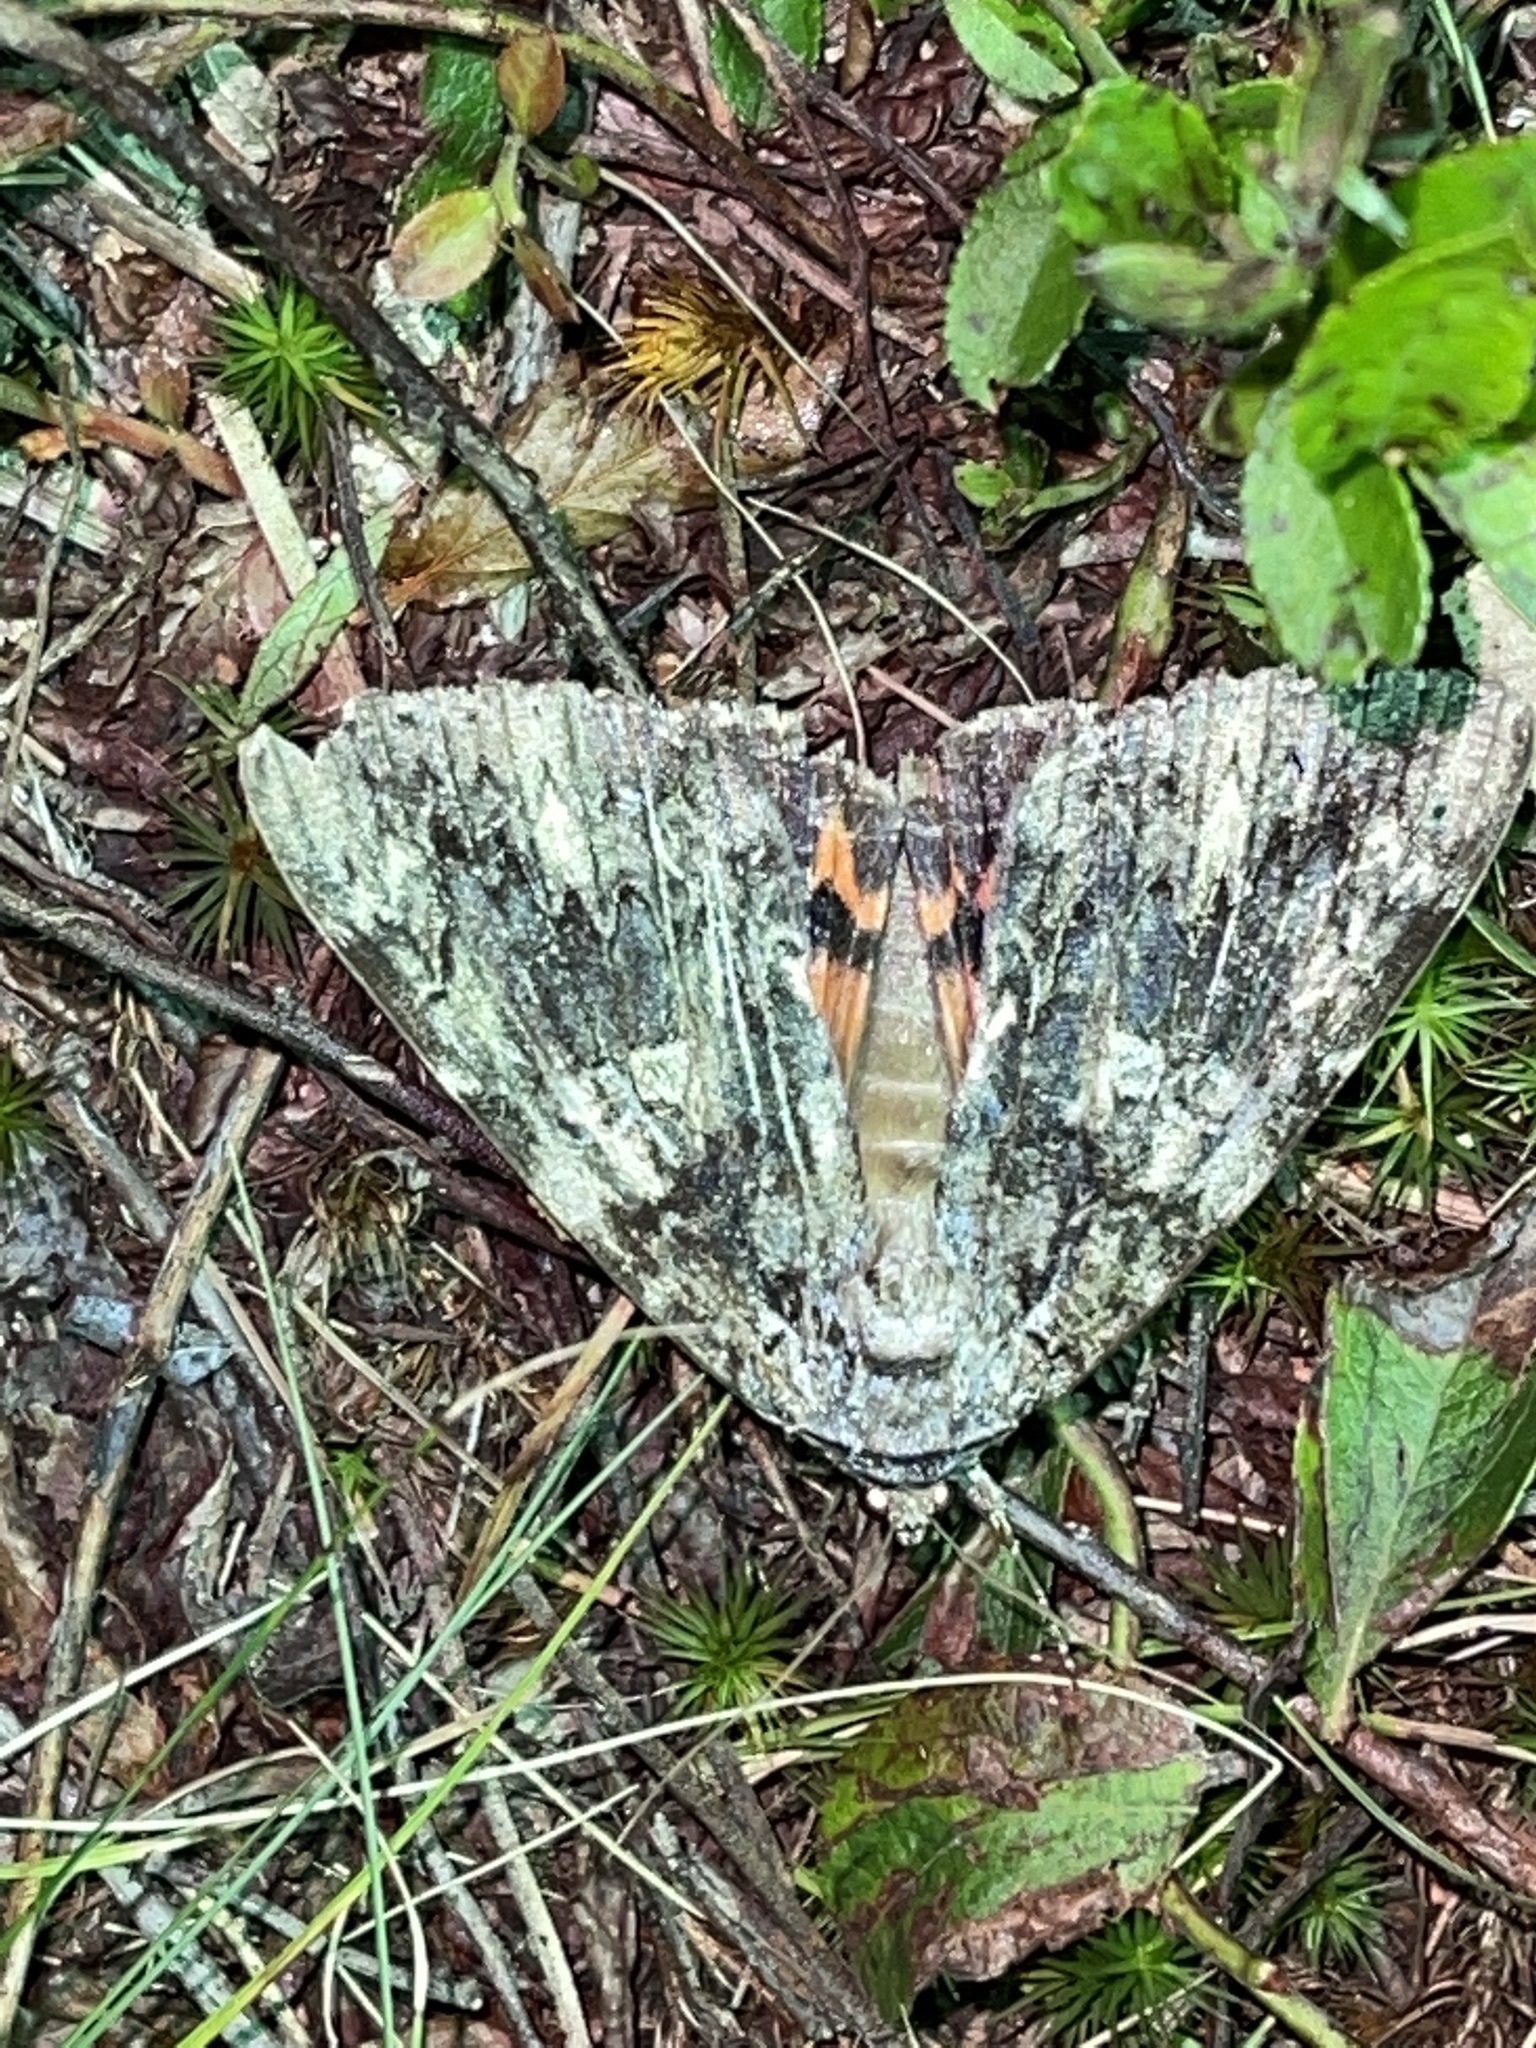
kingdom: Animalia
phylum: Arthropoda
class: Insecta
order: Lepidoptera
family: Erebidae
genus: Catocala
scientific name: Catocala ilia
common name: Ilia underwing
